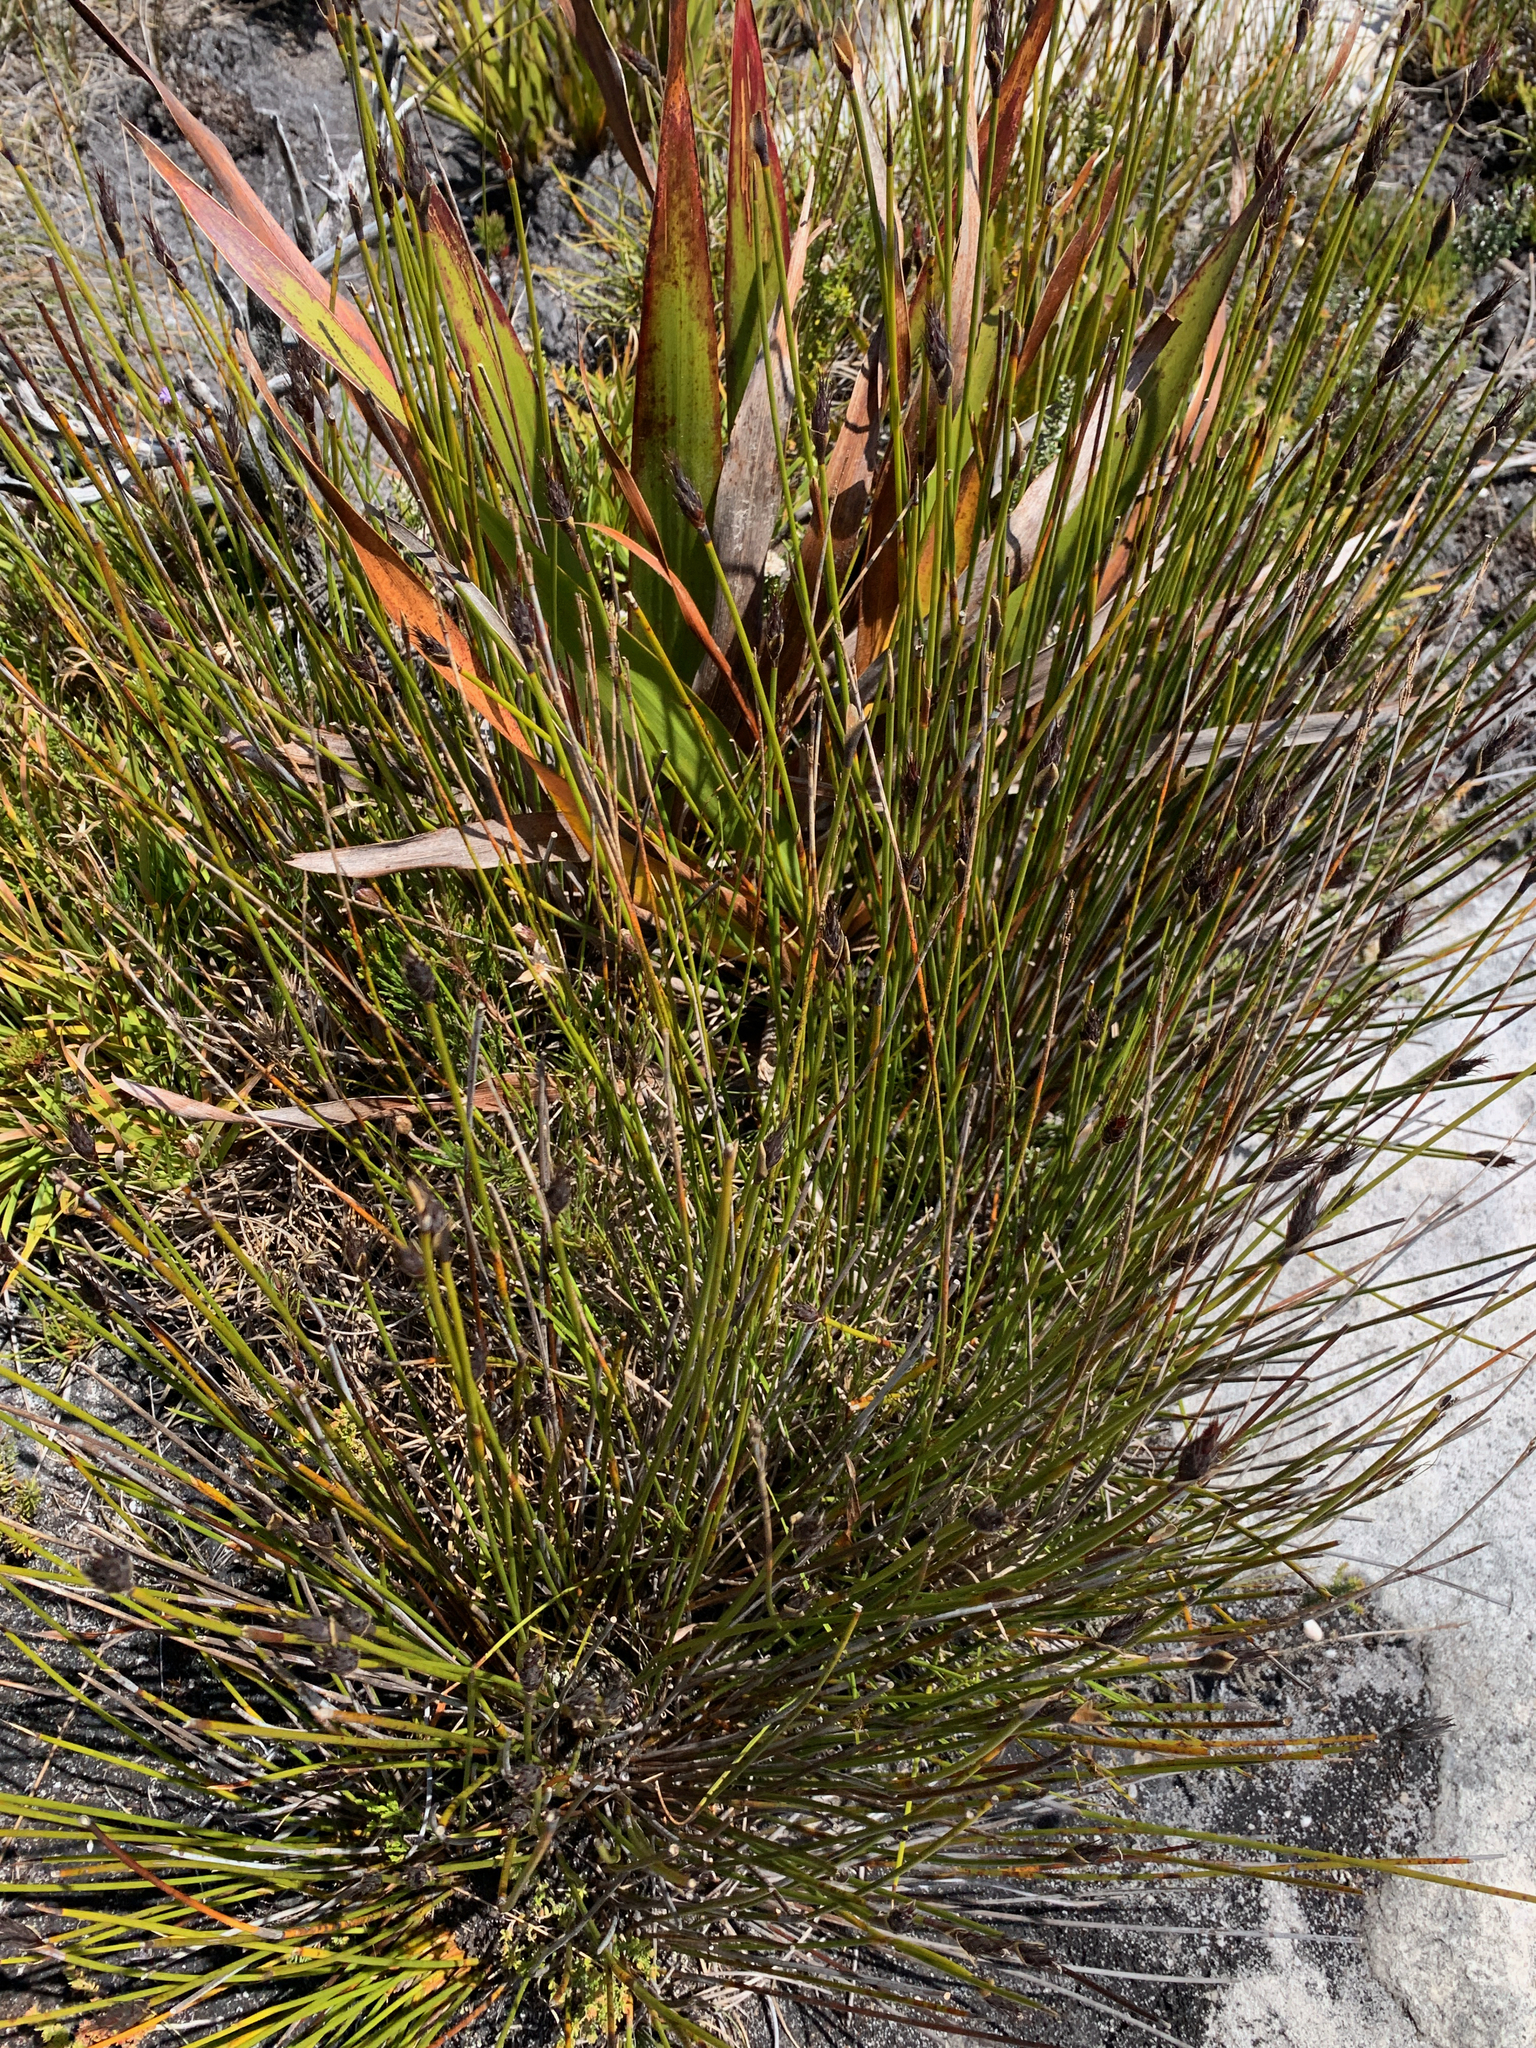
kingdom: Plantae
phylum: Tracheophyta
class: Liliopsida
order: Poales
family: Restionaceae
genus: Hypodiscus
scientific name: Hypodiscus alboaristatus
